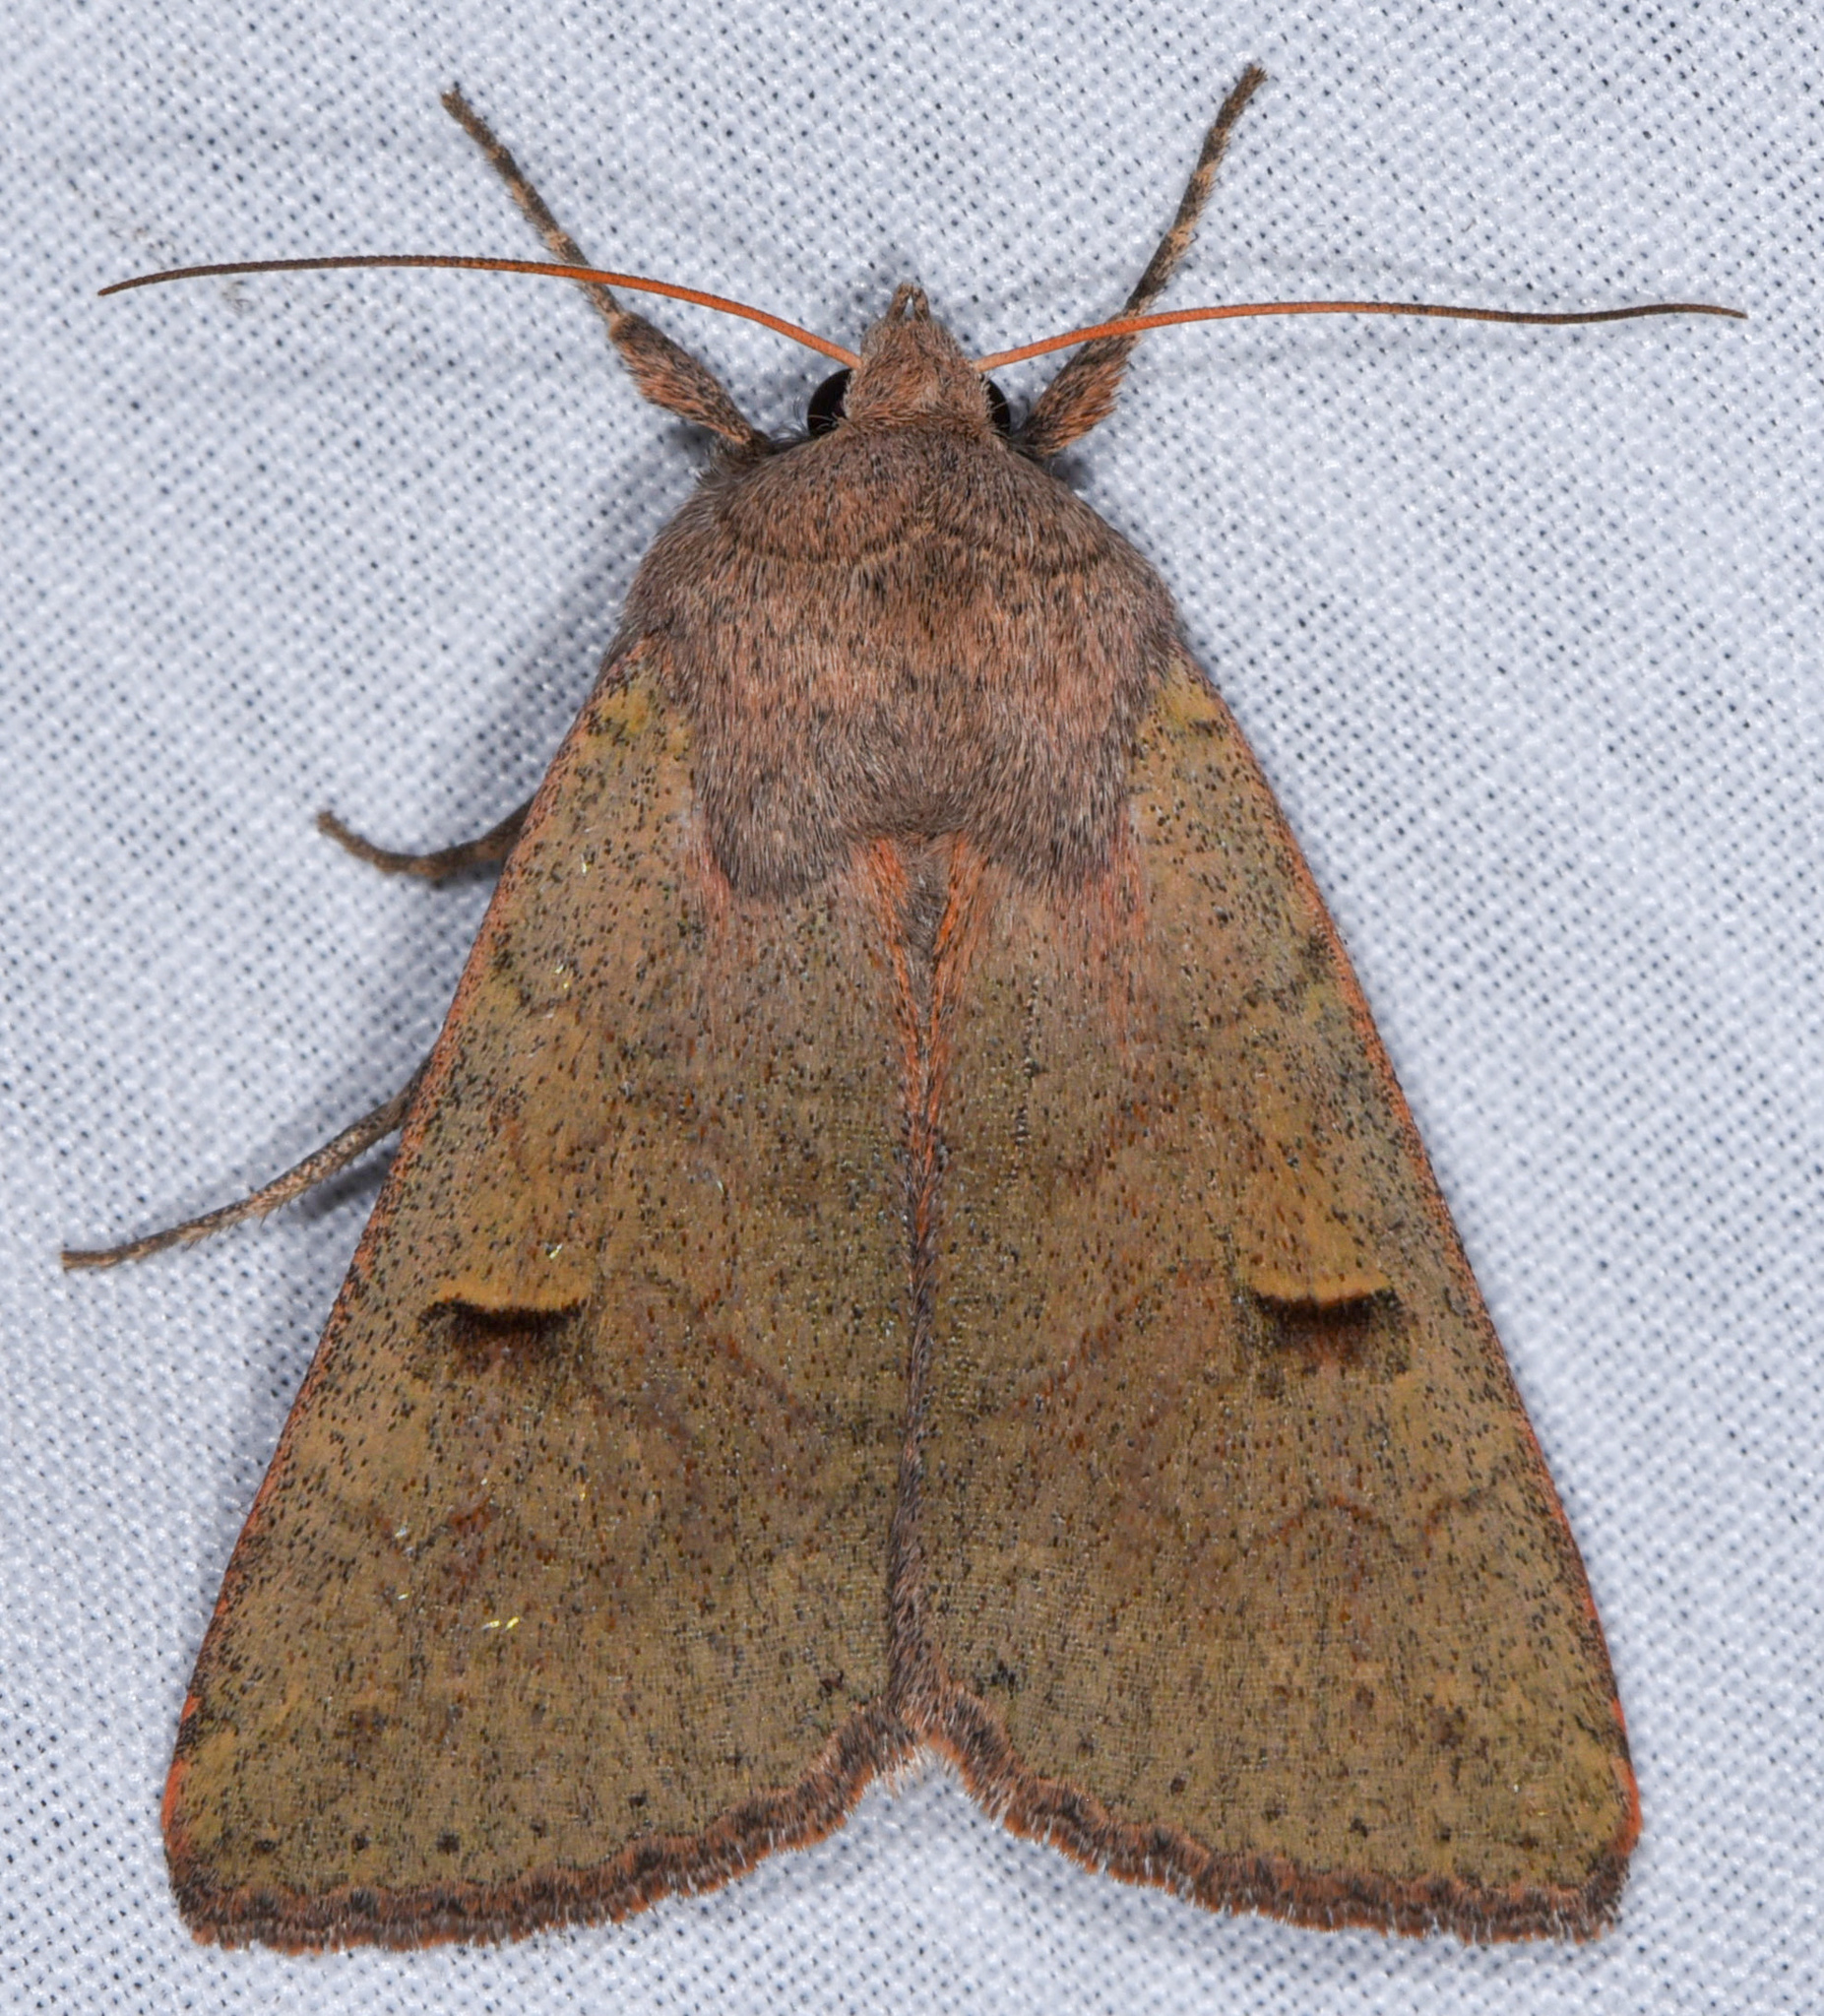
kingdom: Animalia
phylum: Arthropoda
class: Insecta
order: Lepidoptera
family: Erebidae
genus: Cissusa
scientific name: Cissusa indiscreta
